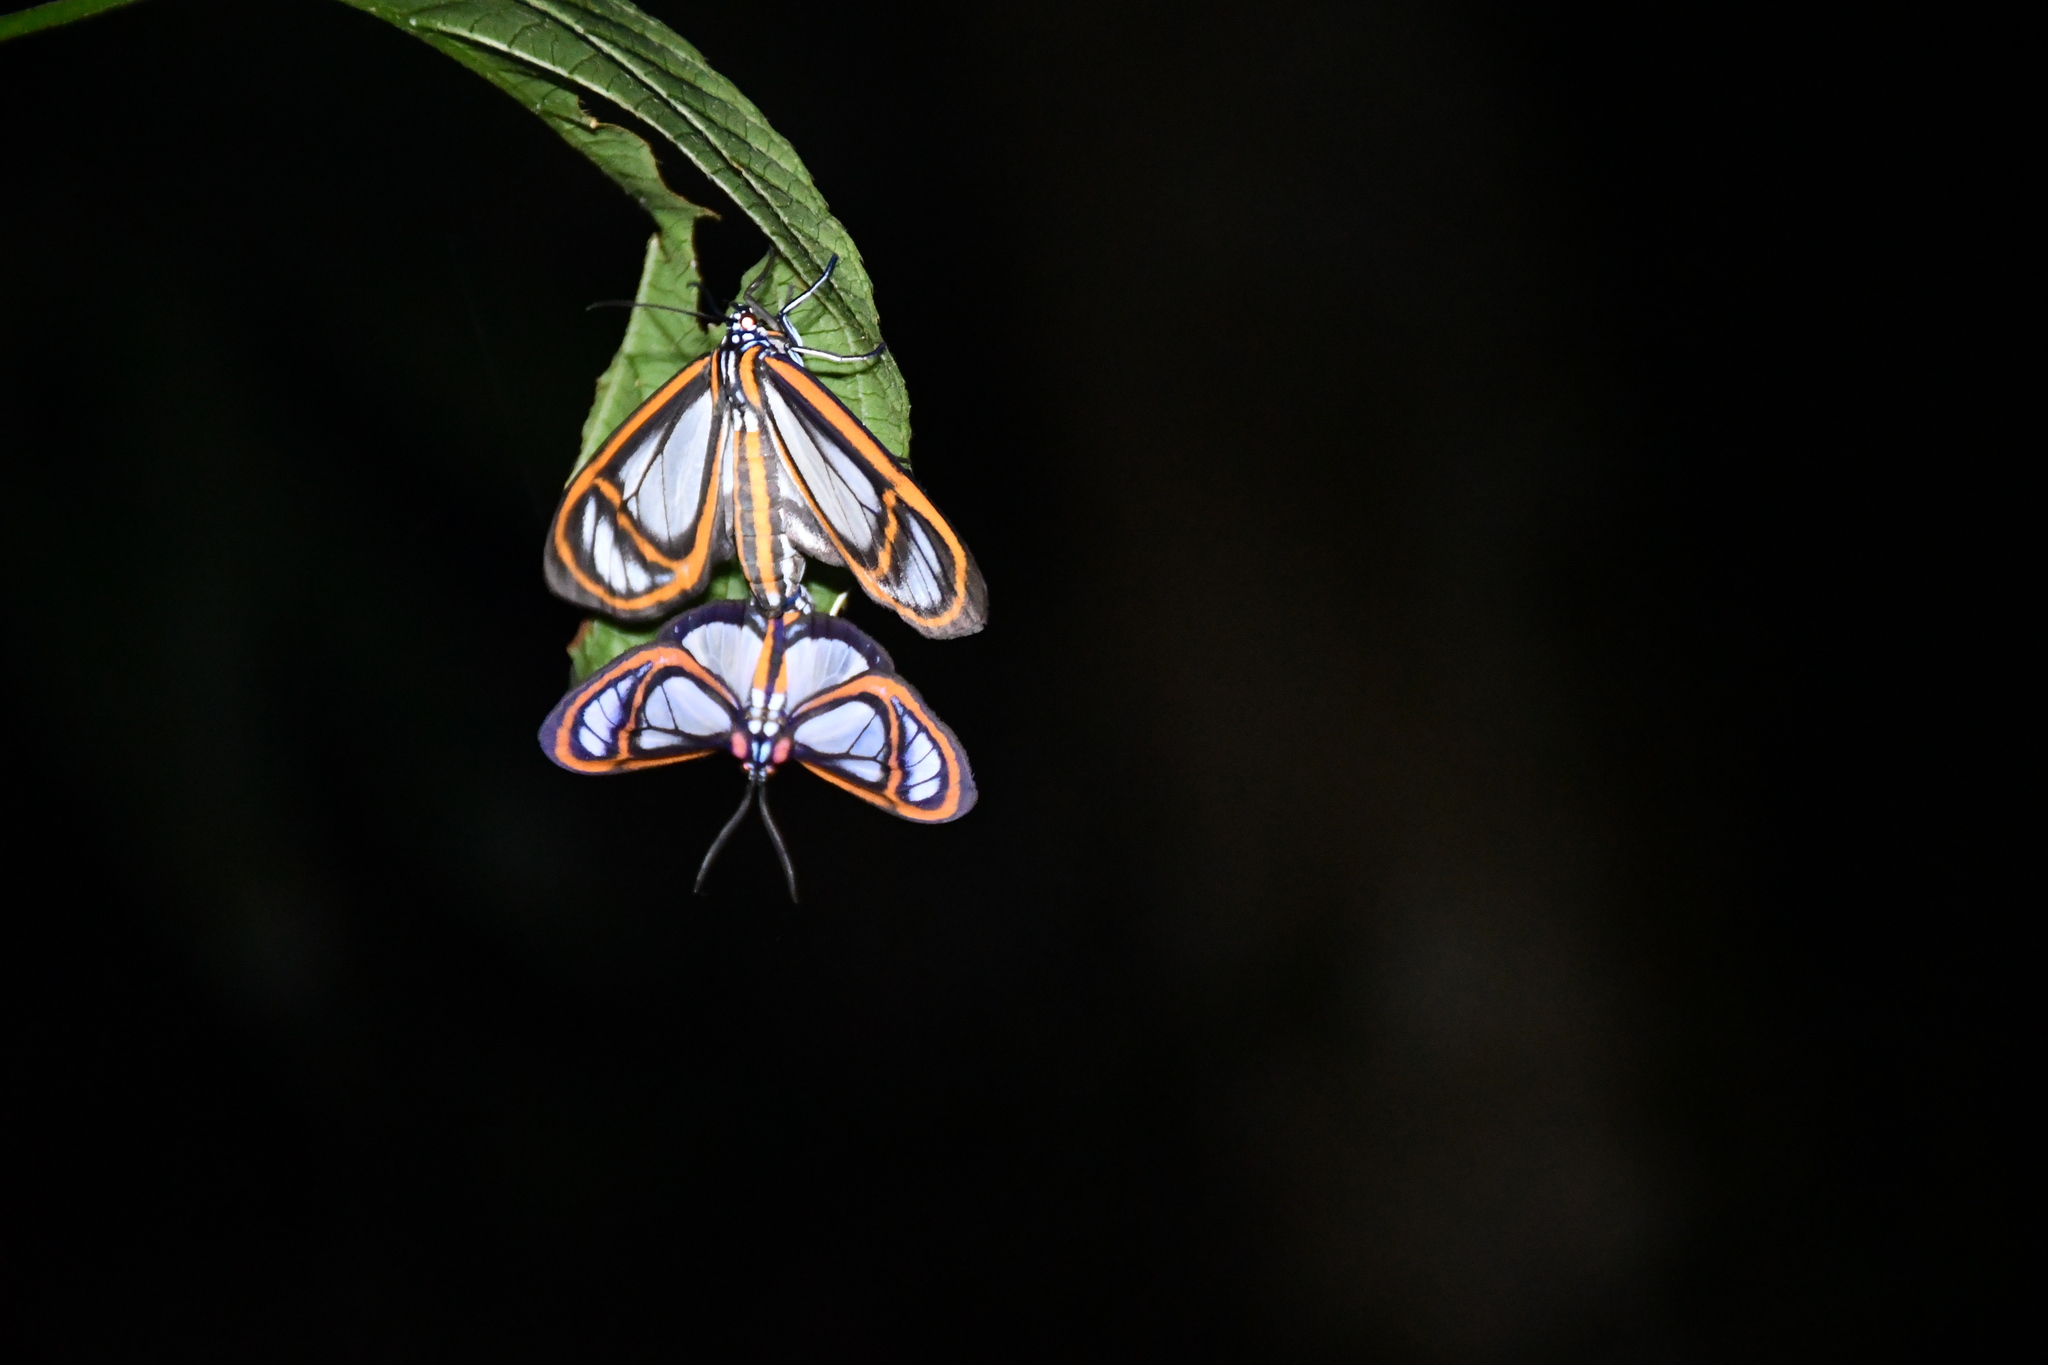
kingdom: Animalia
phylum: Arthropoda
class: Insecta
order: Lepidoptera
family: Erebidae
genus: Hyalurga
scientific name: Hyalurga fenestra
